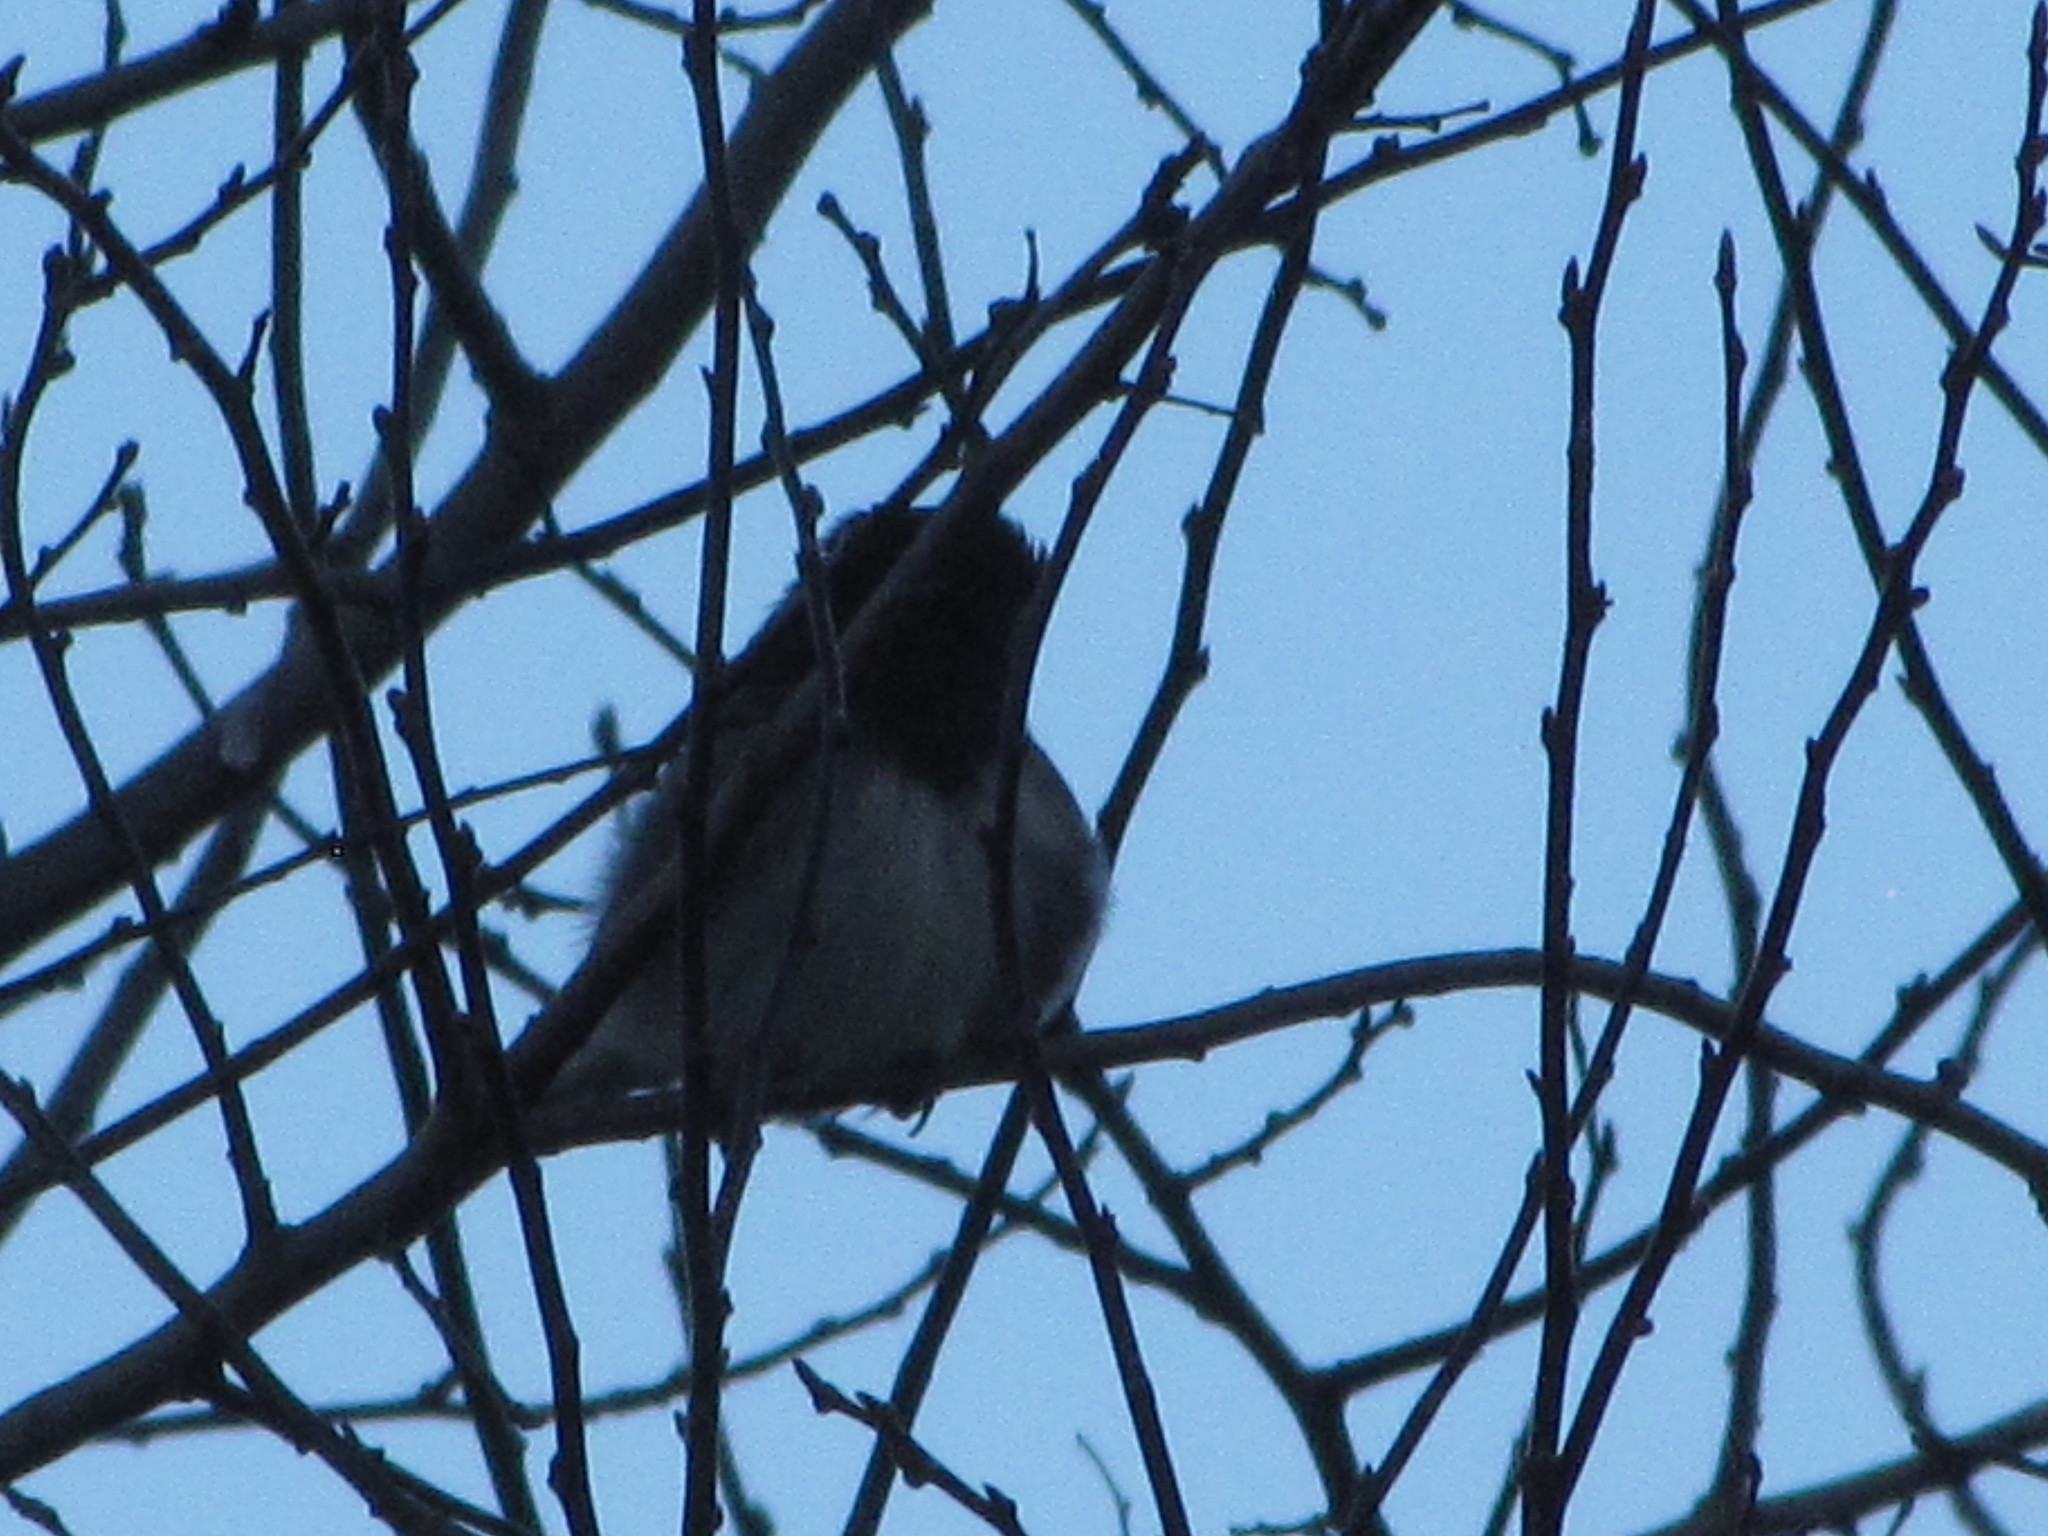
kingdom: Animalia
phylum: Chordata
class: Aves
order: Passeriformes
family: Passerellidae
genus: Junco
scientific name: Junco hyemalis
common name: Dark-eyed junco
